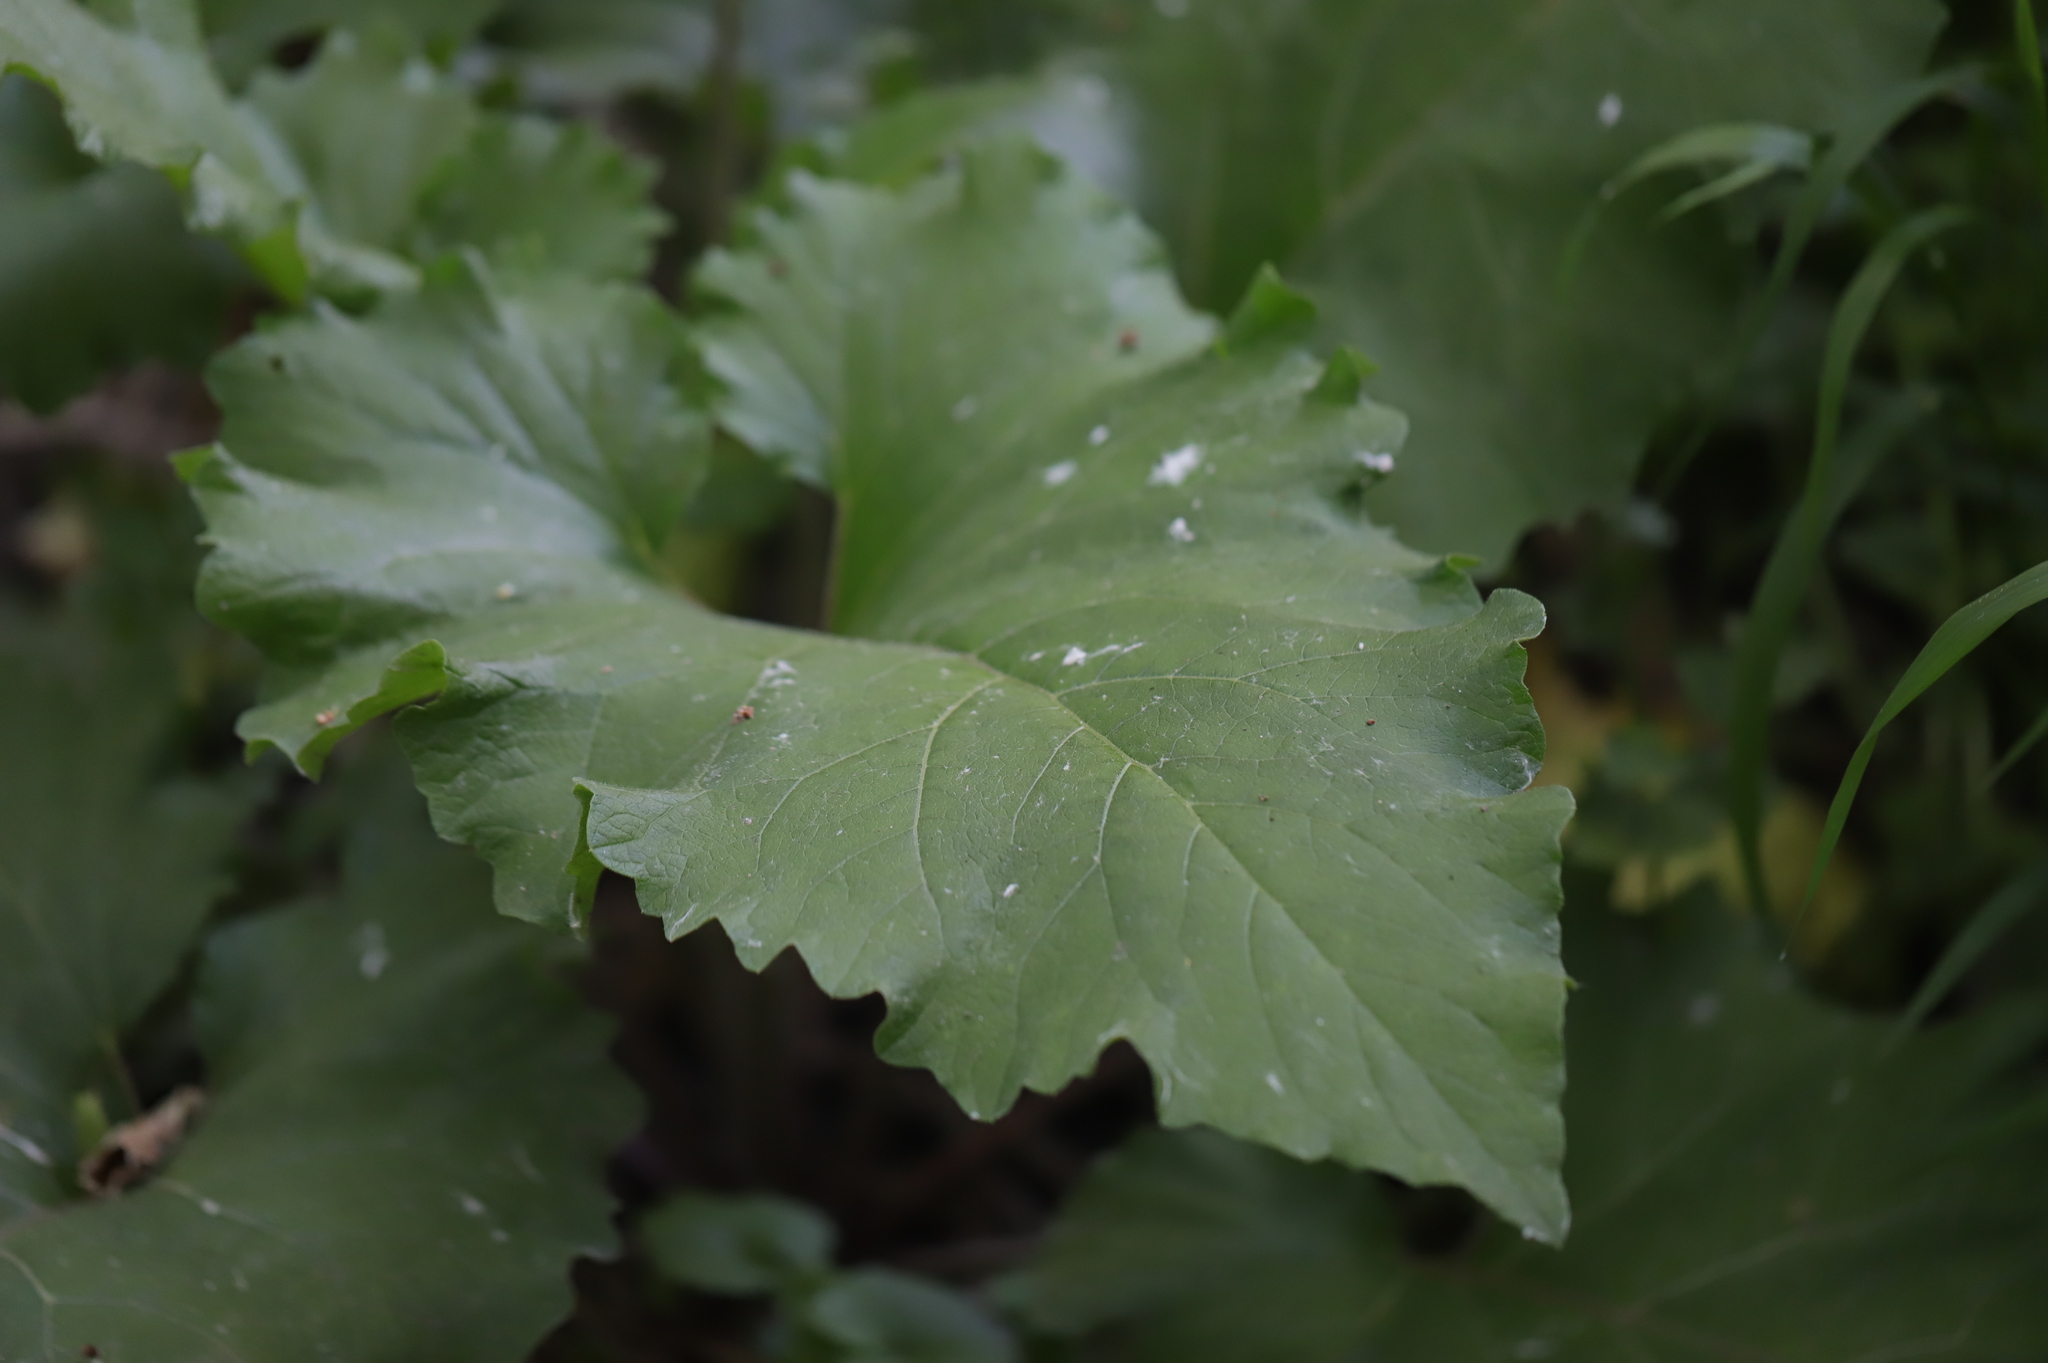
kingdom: Plantae
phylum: Tracheophyta
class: Magnoliopsida
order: Asterales
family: Asteraceae
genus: Arctium
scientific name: Arctium
